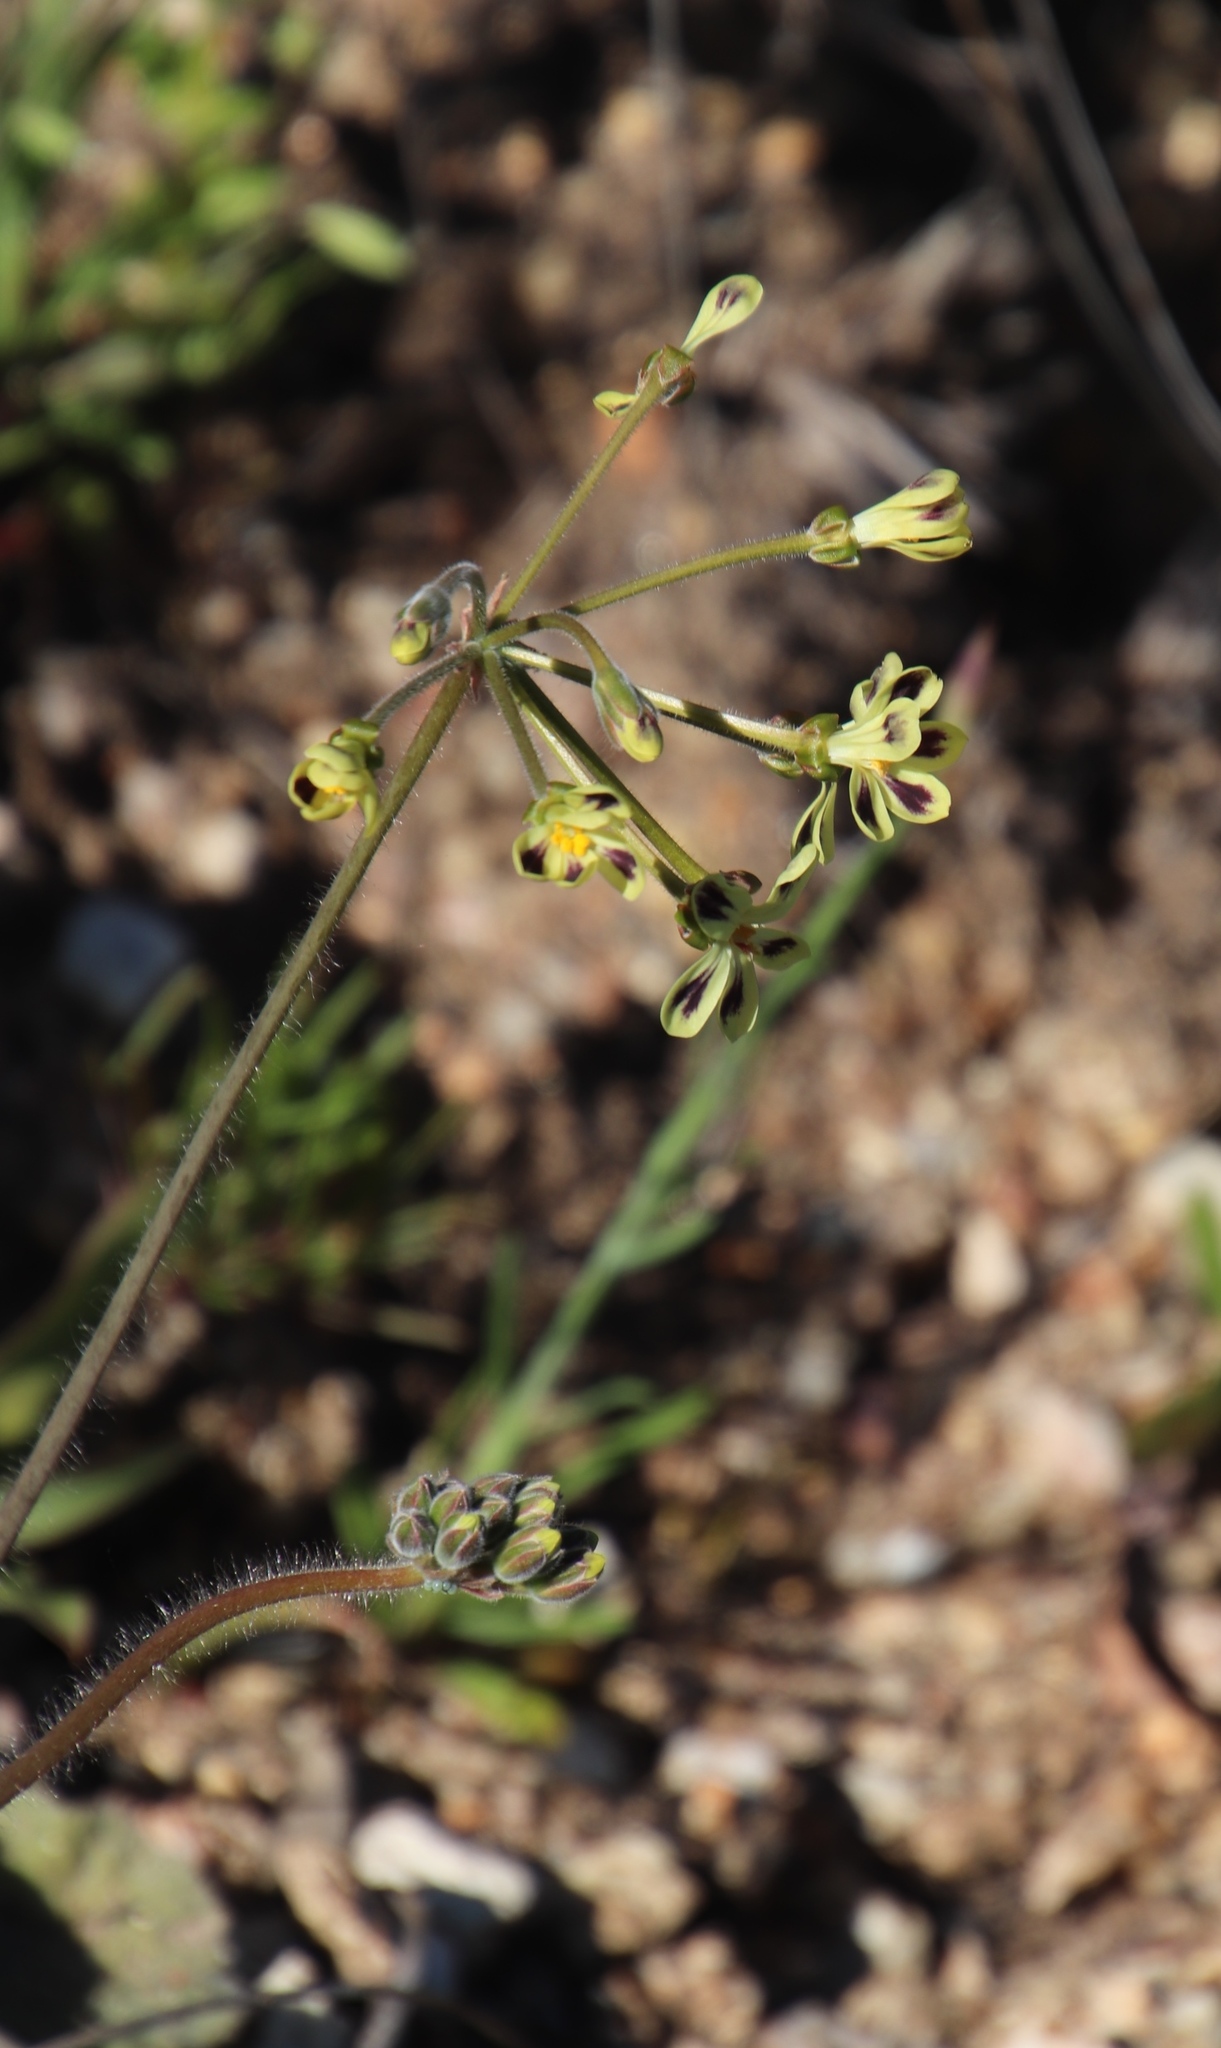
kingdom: Plantae
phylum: Tracheophyta
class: Magnoliopsida
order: Geraniales
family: Geraniaceae
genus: Pelargonium
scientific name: Pelargonium lobatum
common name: Vine-leaf pelargonium
